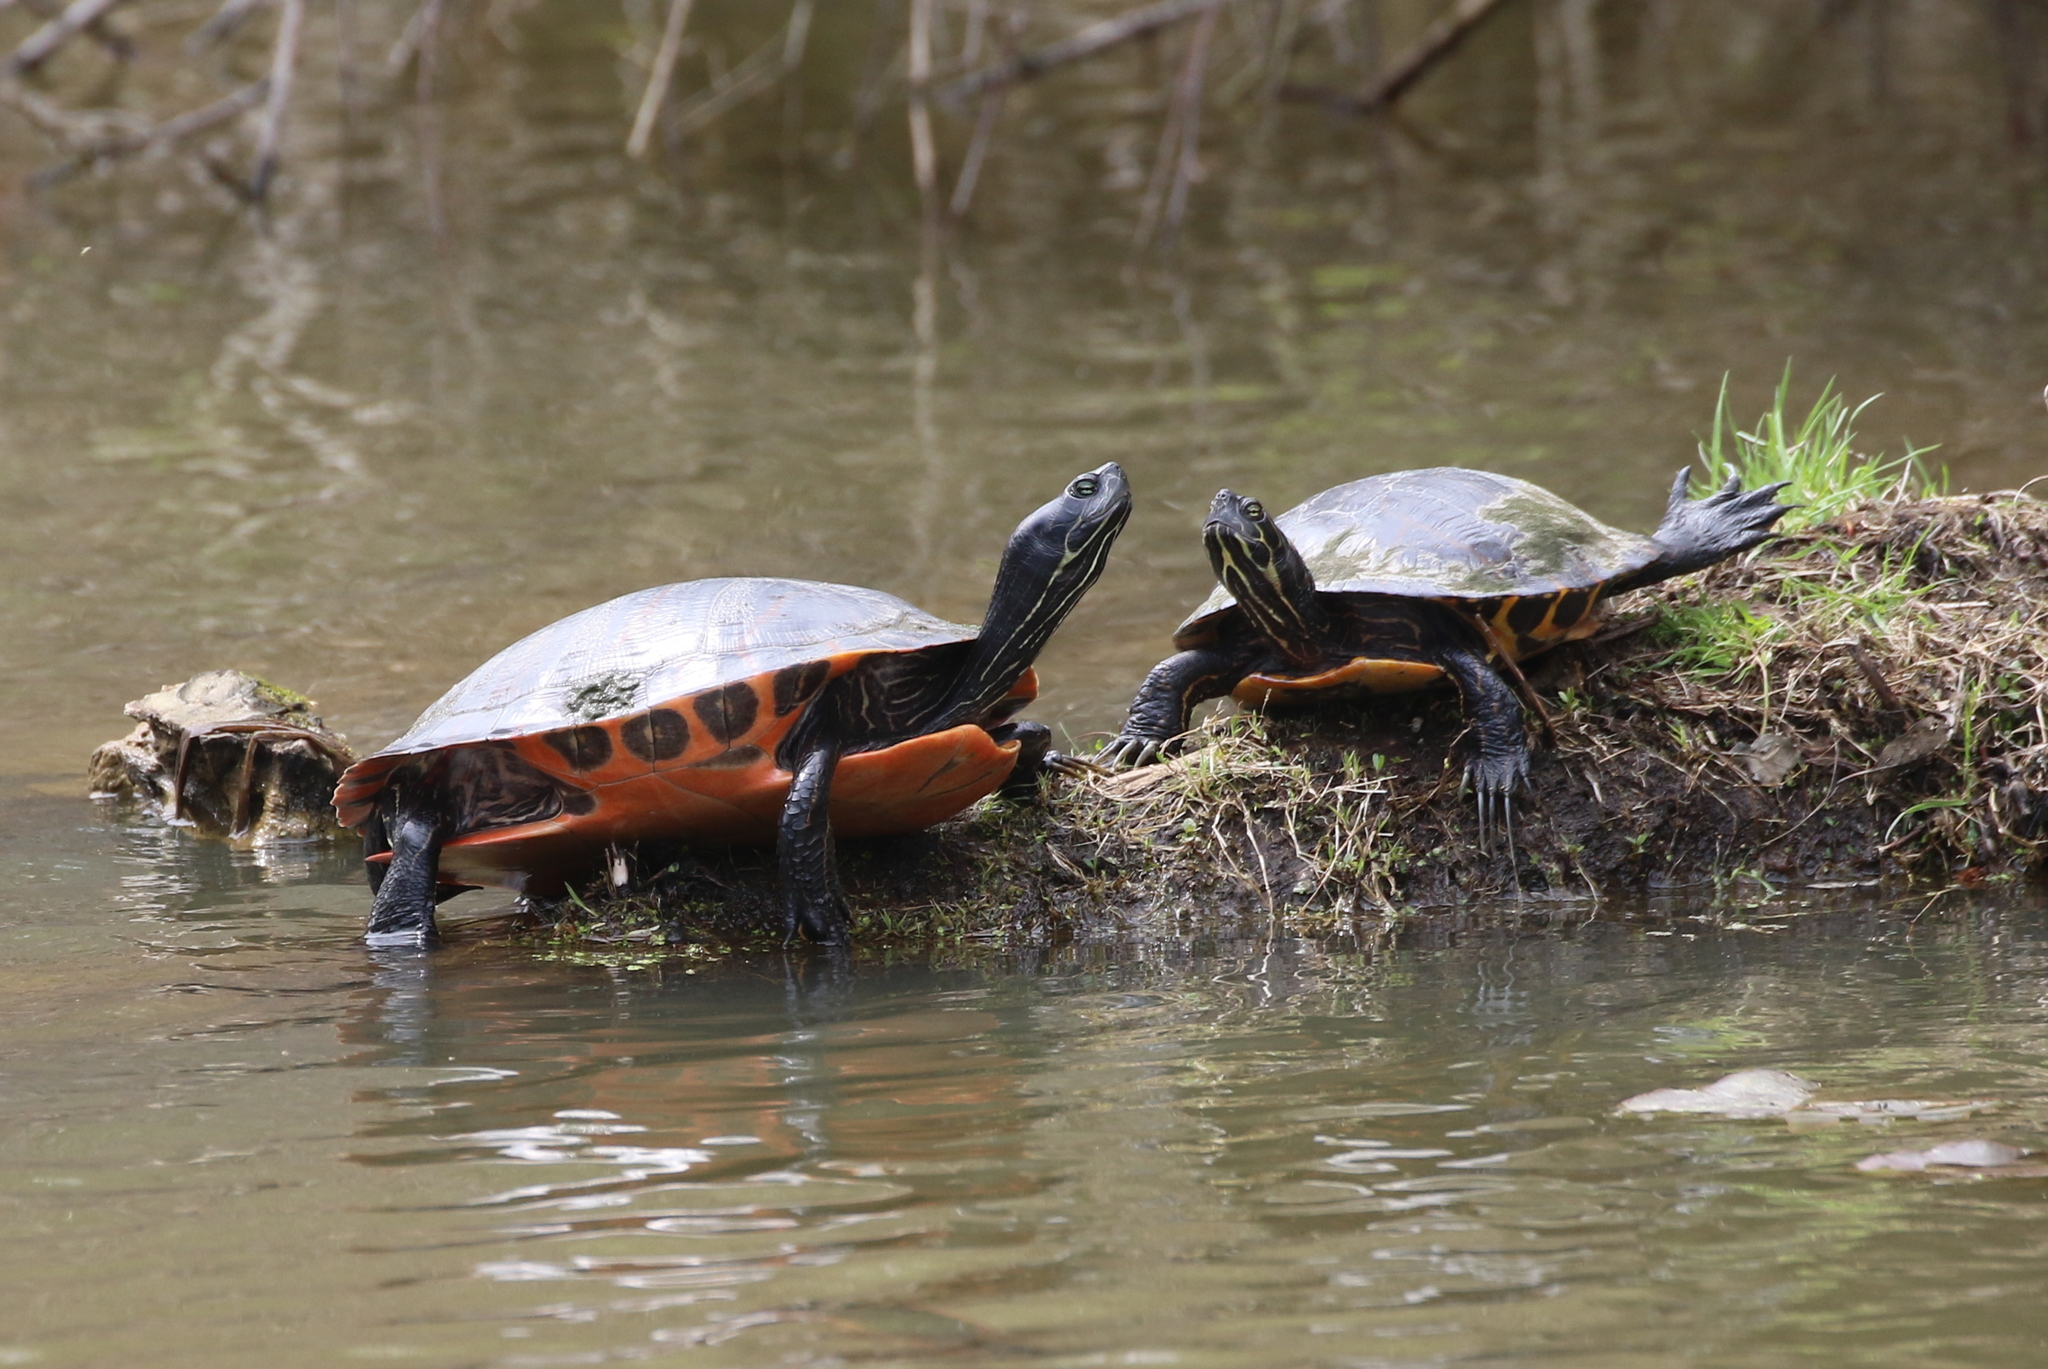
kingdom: Animalia
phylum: Chordata
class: Testudines
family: Emydidae
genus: Pseudemys
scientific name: Pseudemys rubriventris
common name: American red-bellied turtle
